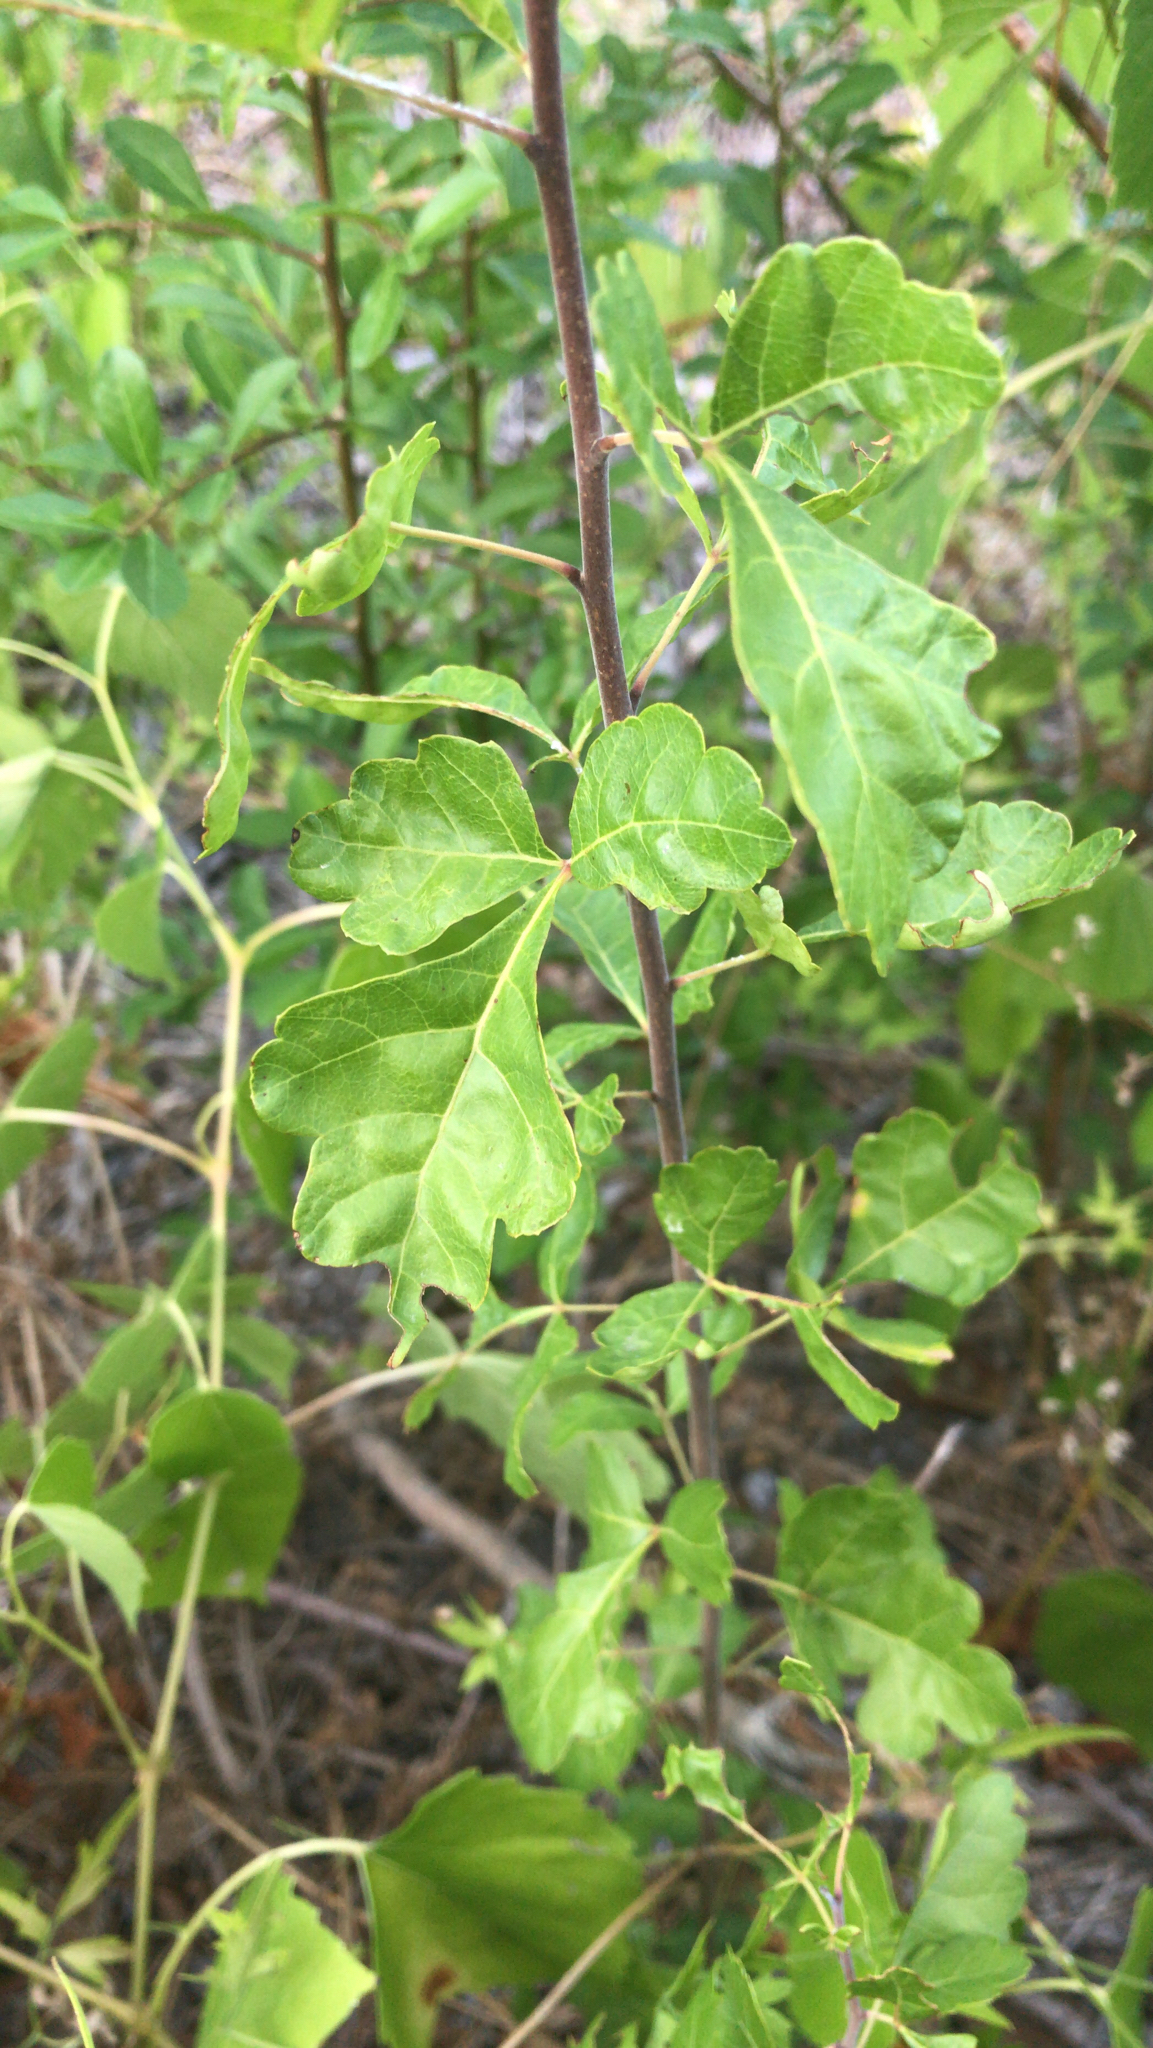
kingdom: Plantae
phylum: Tracheophyta
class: Magnoliopsida
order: Sapindales
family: Anacardiaceae
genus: Rhus
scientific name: Rhus aromatica
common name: Aromatic sumac
